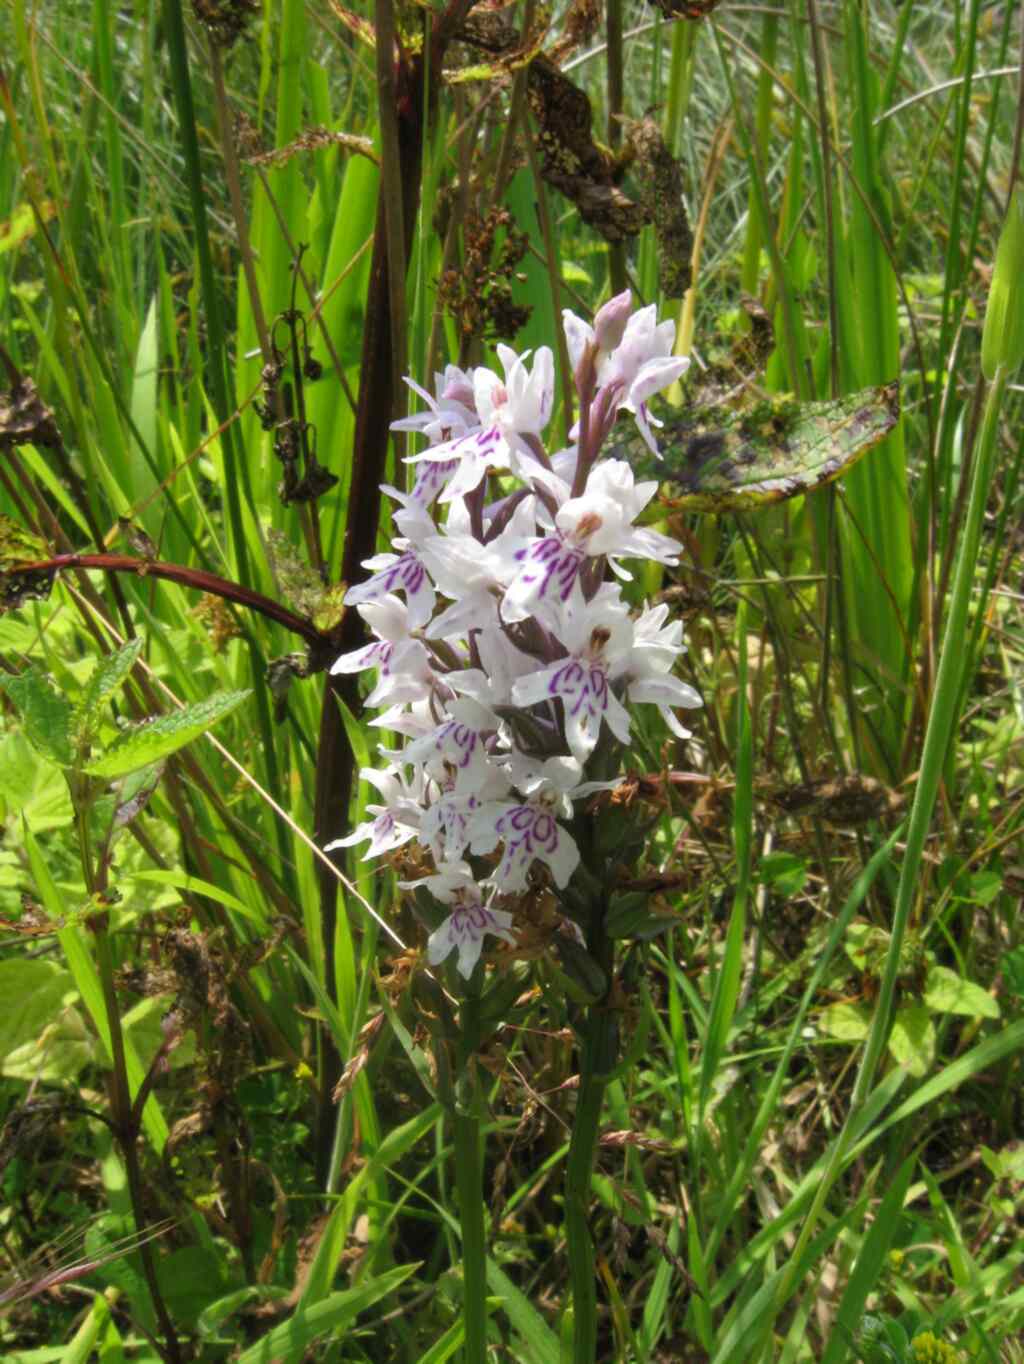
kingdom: Plantae
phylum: Tracheophyta
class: Liliopsida
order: Asparagales
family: Orchidaceae
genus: Dactylorhiza
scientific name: Dactylorhiza maculata
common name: Heath spotted-orchid
